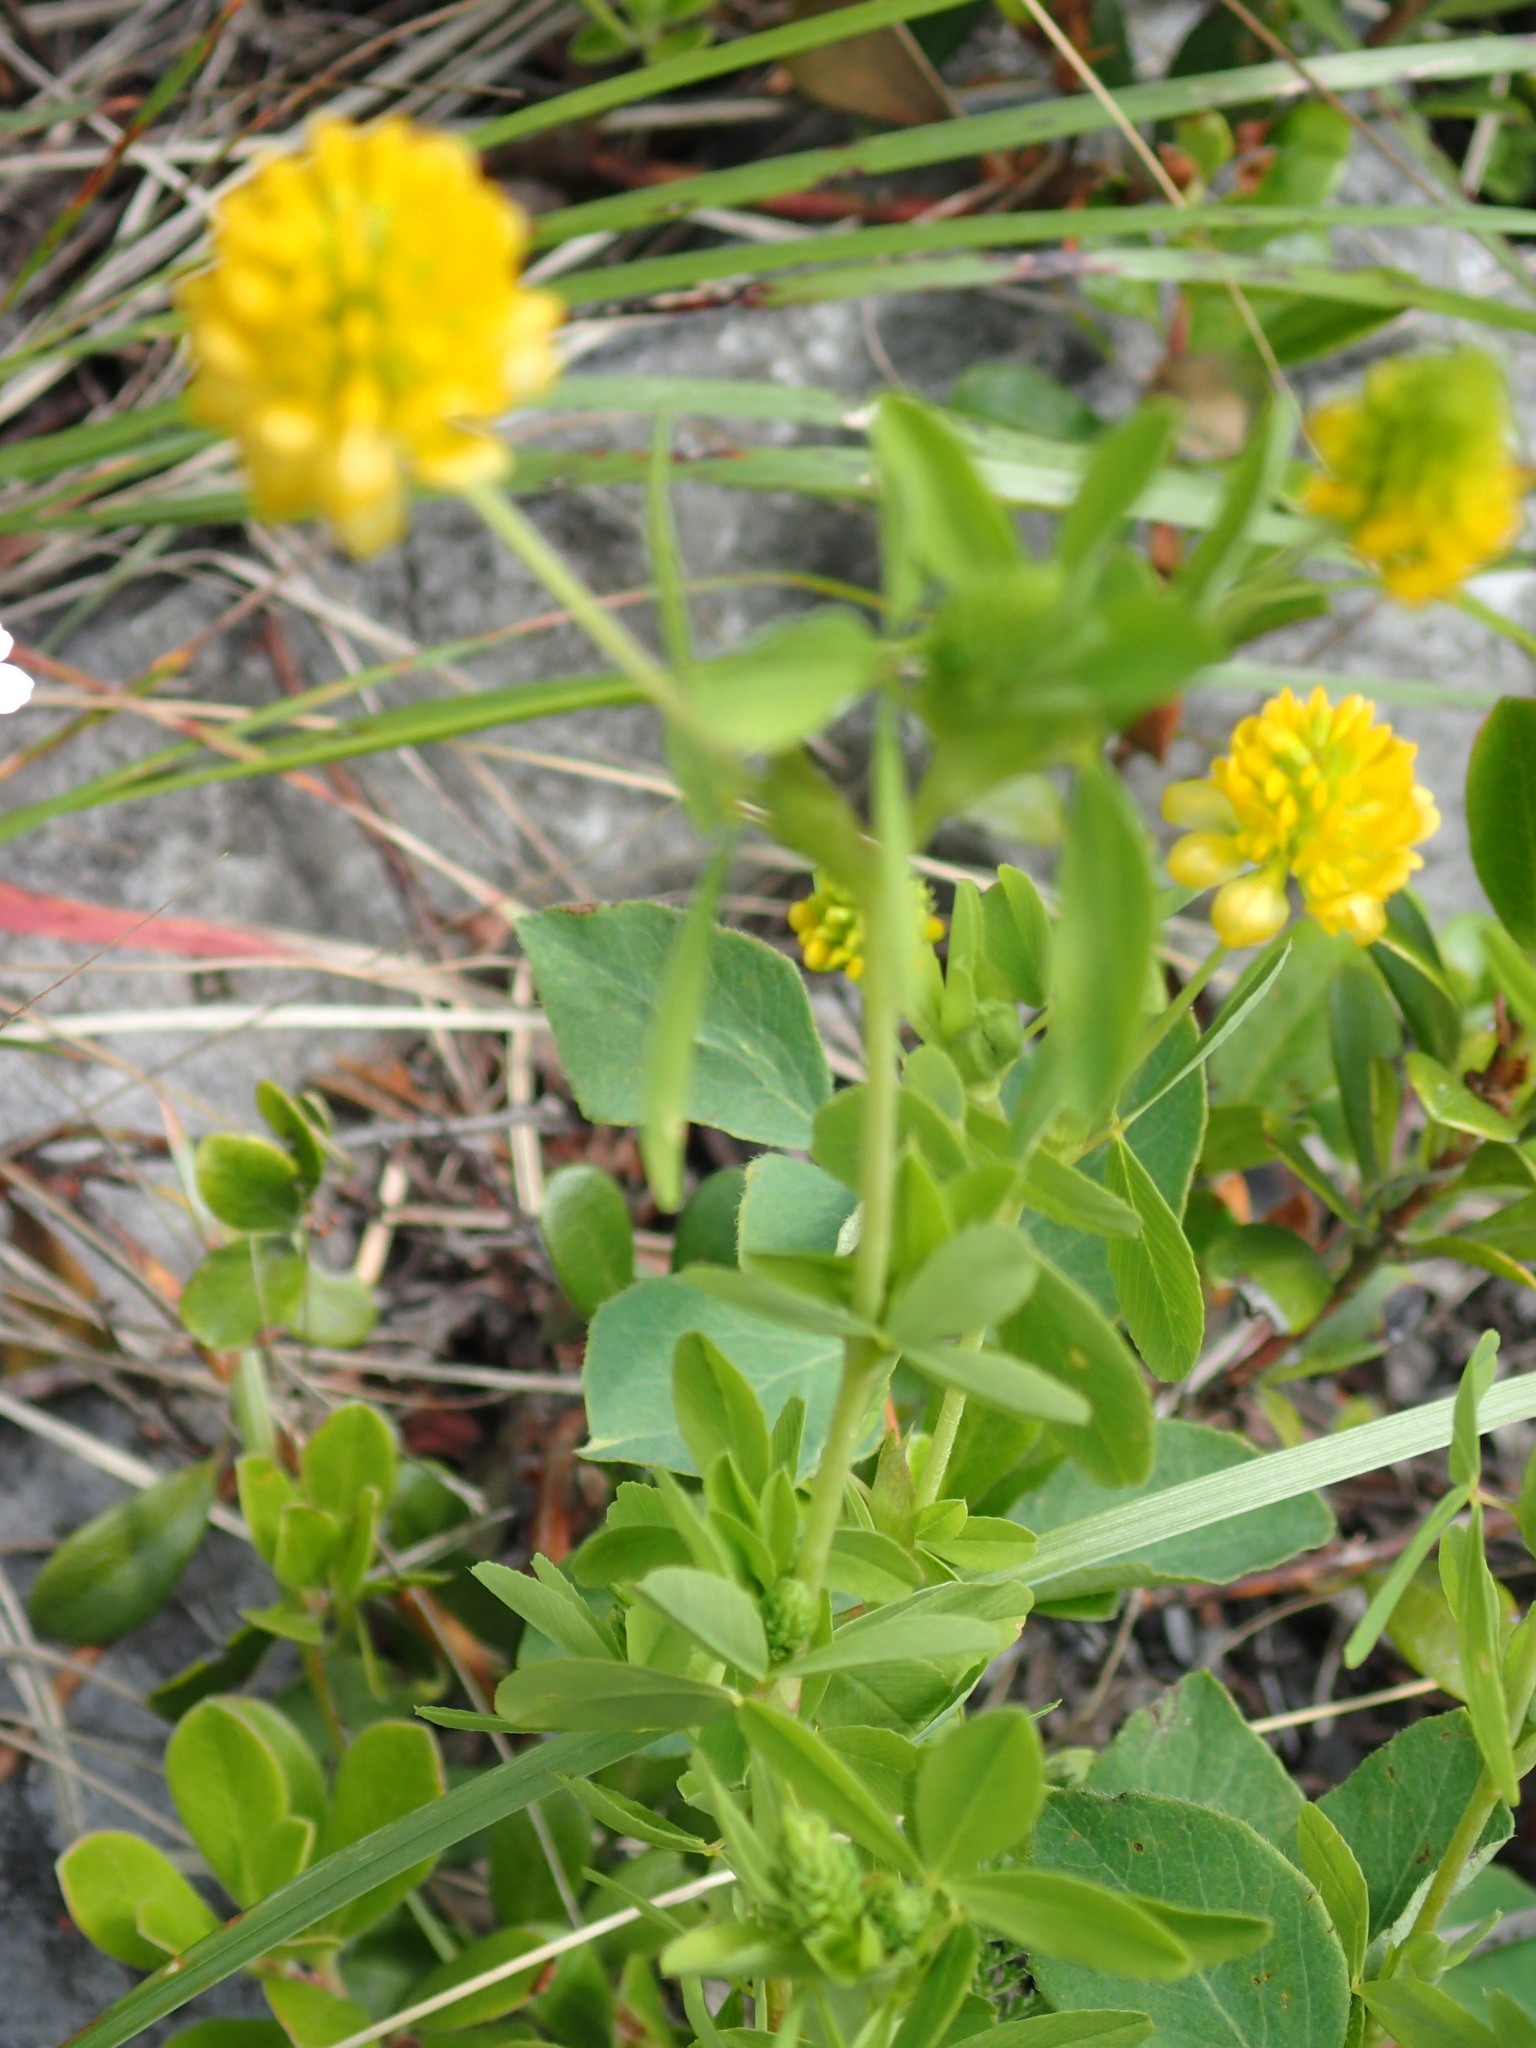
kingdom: Plantae
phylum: Tracheophyta
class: Magnoliopsida
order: Fabales
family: Fabaceae
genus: Trifolium
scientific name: Trifolium aureum
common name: Golden clover
